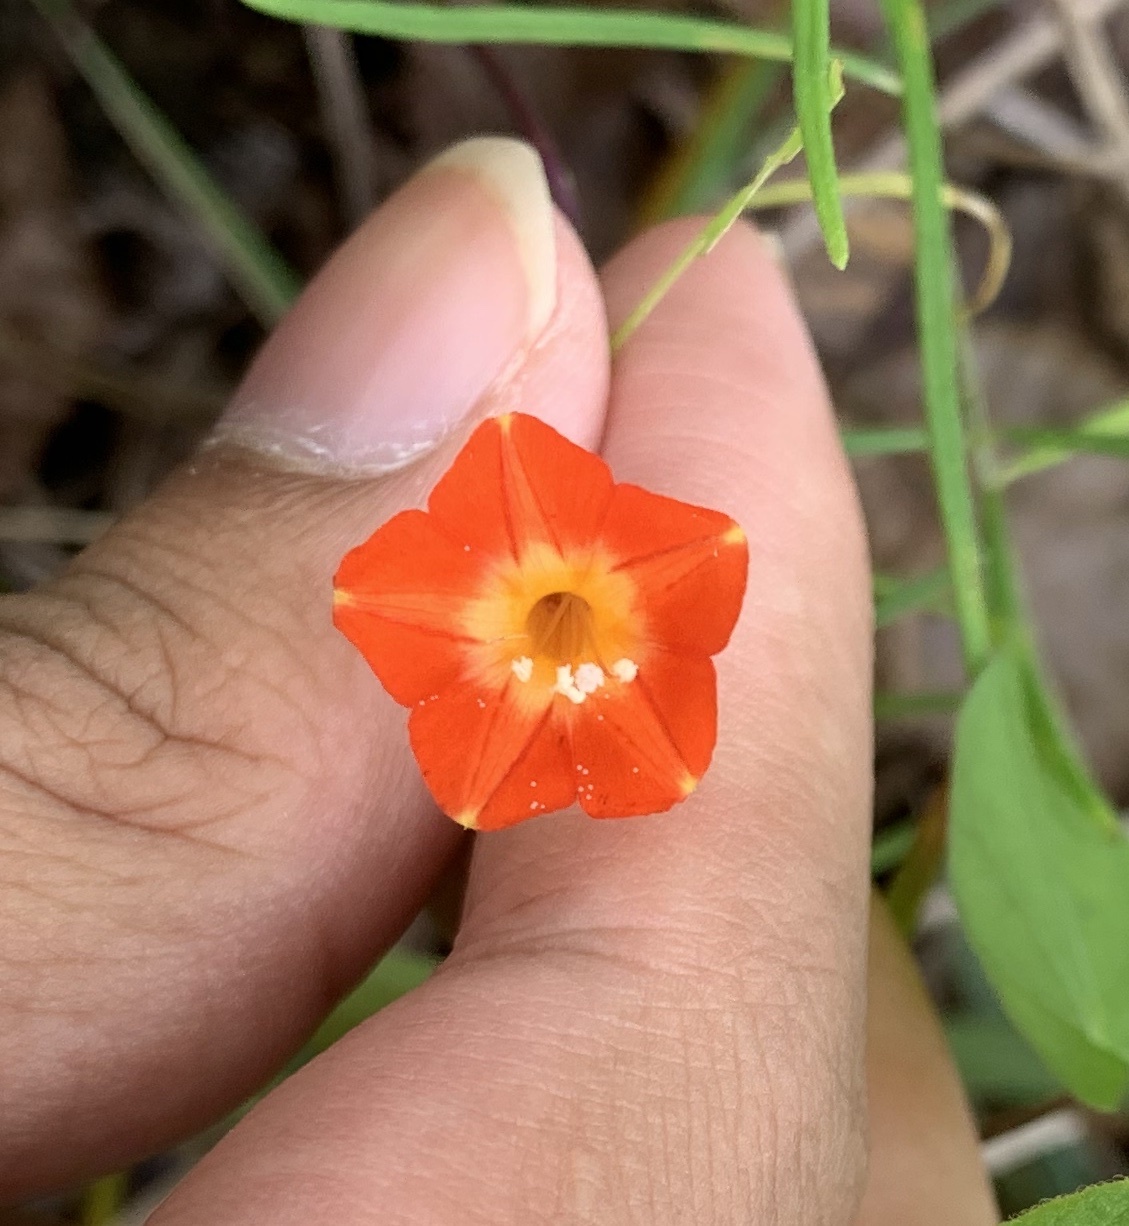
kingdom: Plantae
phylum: Tracheophyta
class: Magnoliopsida
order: Solanales
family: Convolvulaceae
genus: Ipomoea
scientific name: Ipomoea coccinea
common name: Red morning-glory
